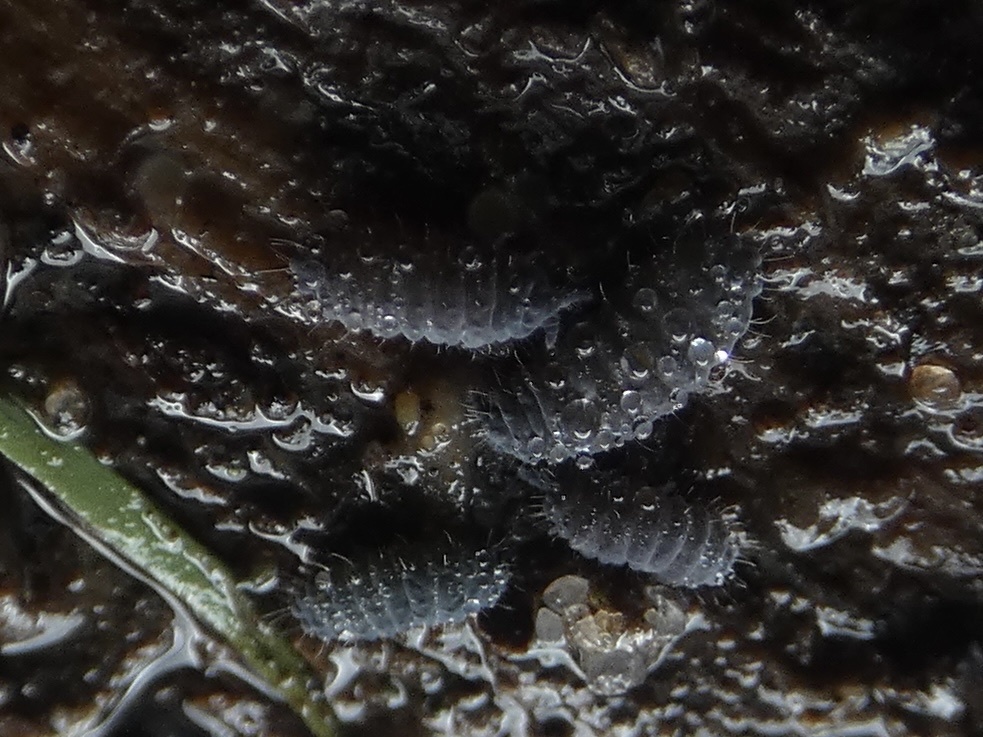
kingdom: Animalia
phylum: Arthropoda
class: Collembola
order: Poduromorpha
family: Neanuridae
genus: Neanura
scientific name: Neanura muscorum
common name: Springtail
